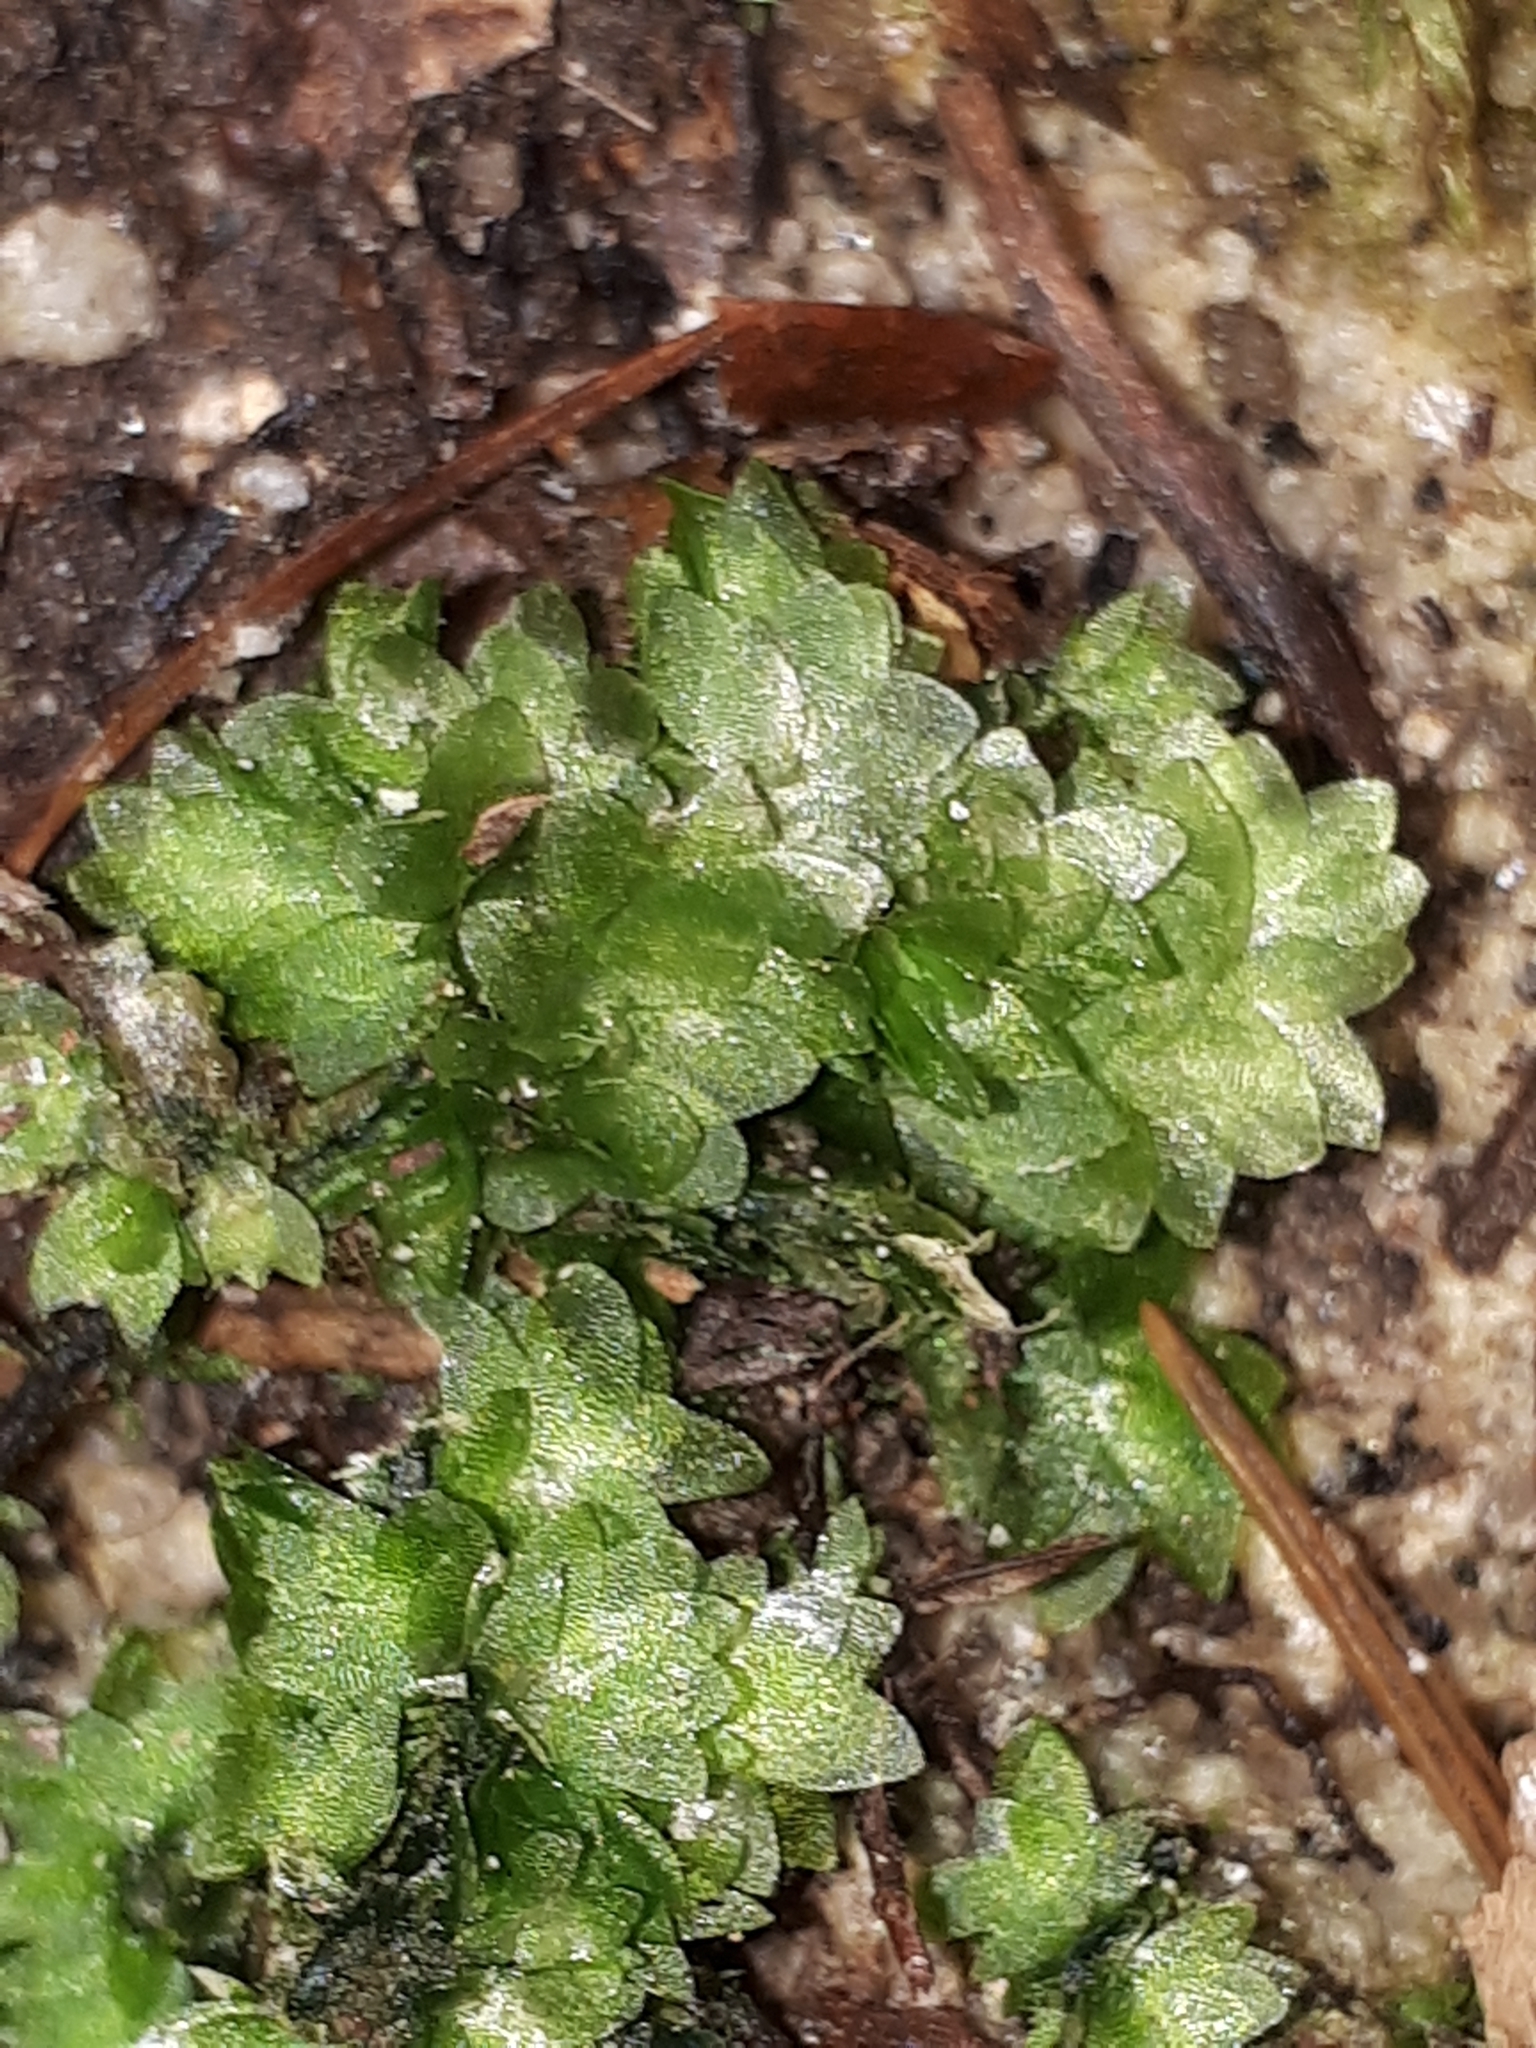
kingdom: Plantae
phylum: Bryophyta
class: Bryopsida
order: Hookeriales
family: Hookeriaceae
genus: Hookeria
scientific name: Hookeria lucens
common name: Shining hookeria
